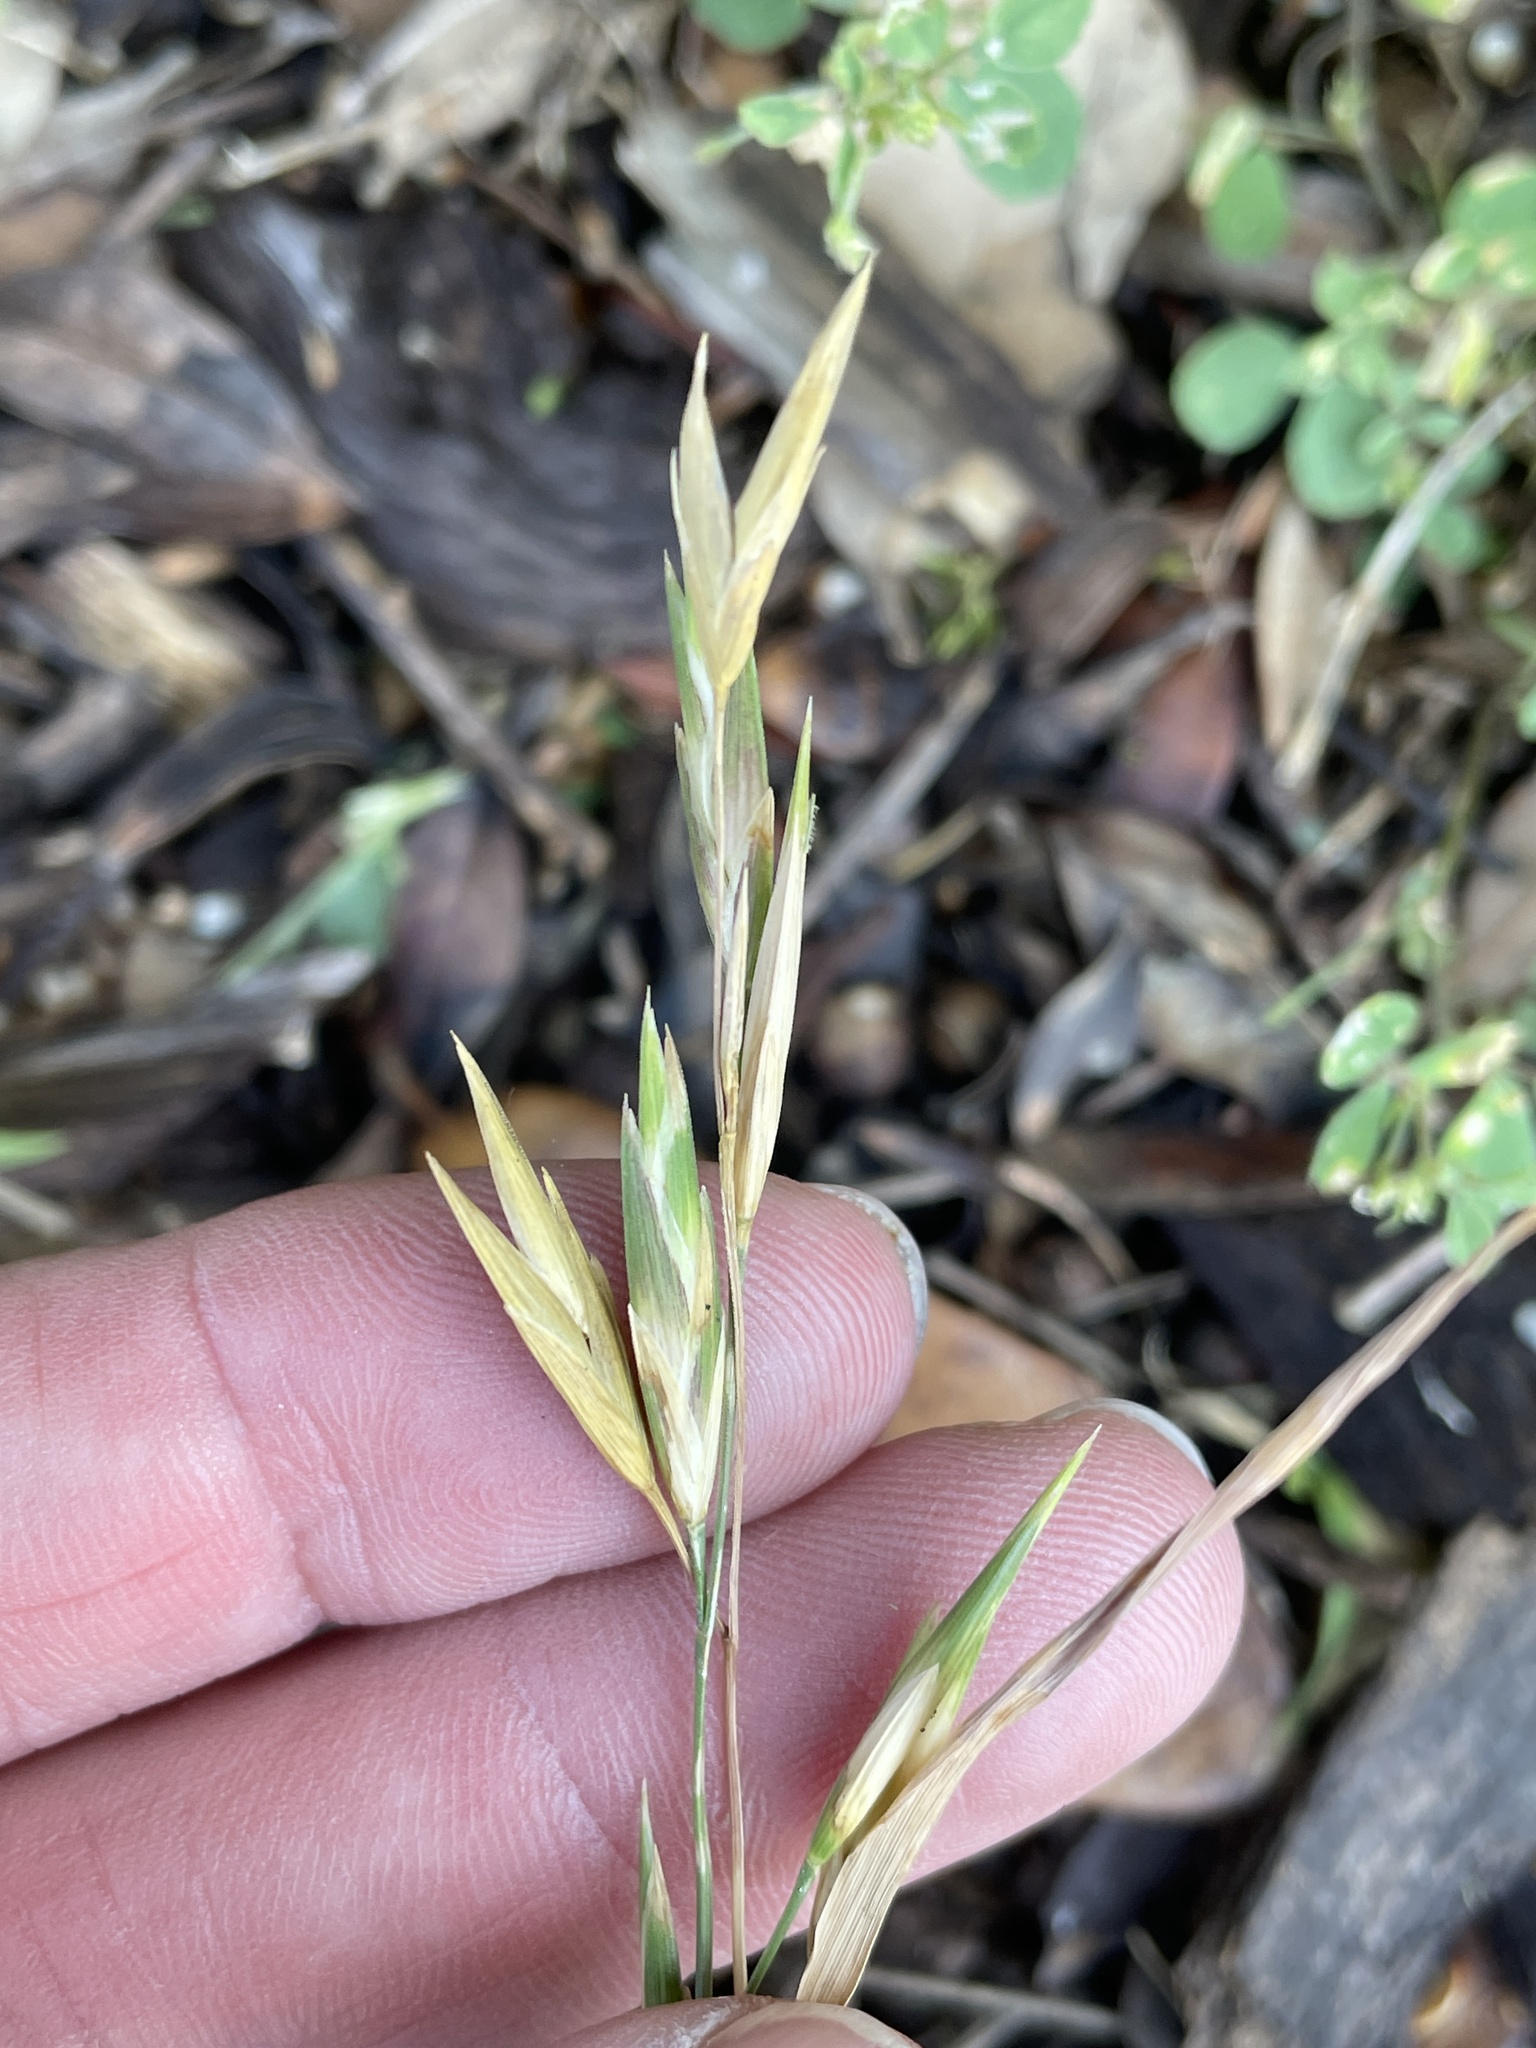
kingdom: Plantae
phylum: Tracheophyta
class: Liliopsida
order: Poales
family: Poaceae
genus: Bromus
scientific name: Bromus catharticus
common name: Rescuegrass
